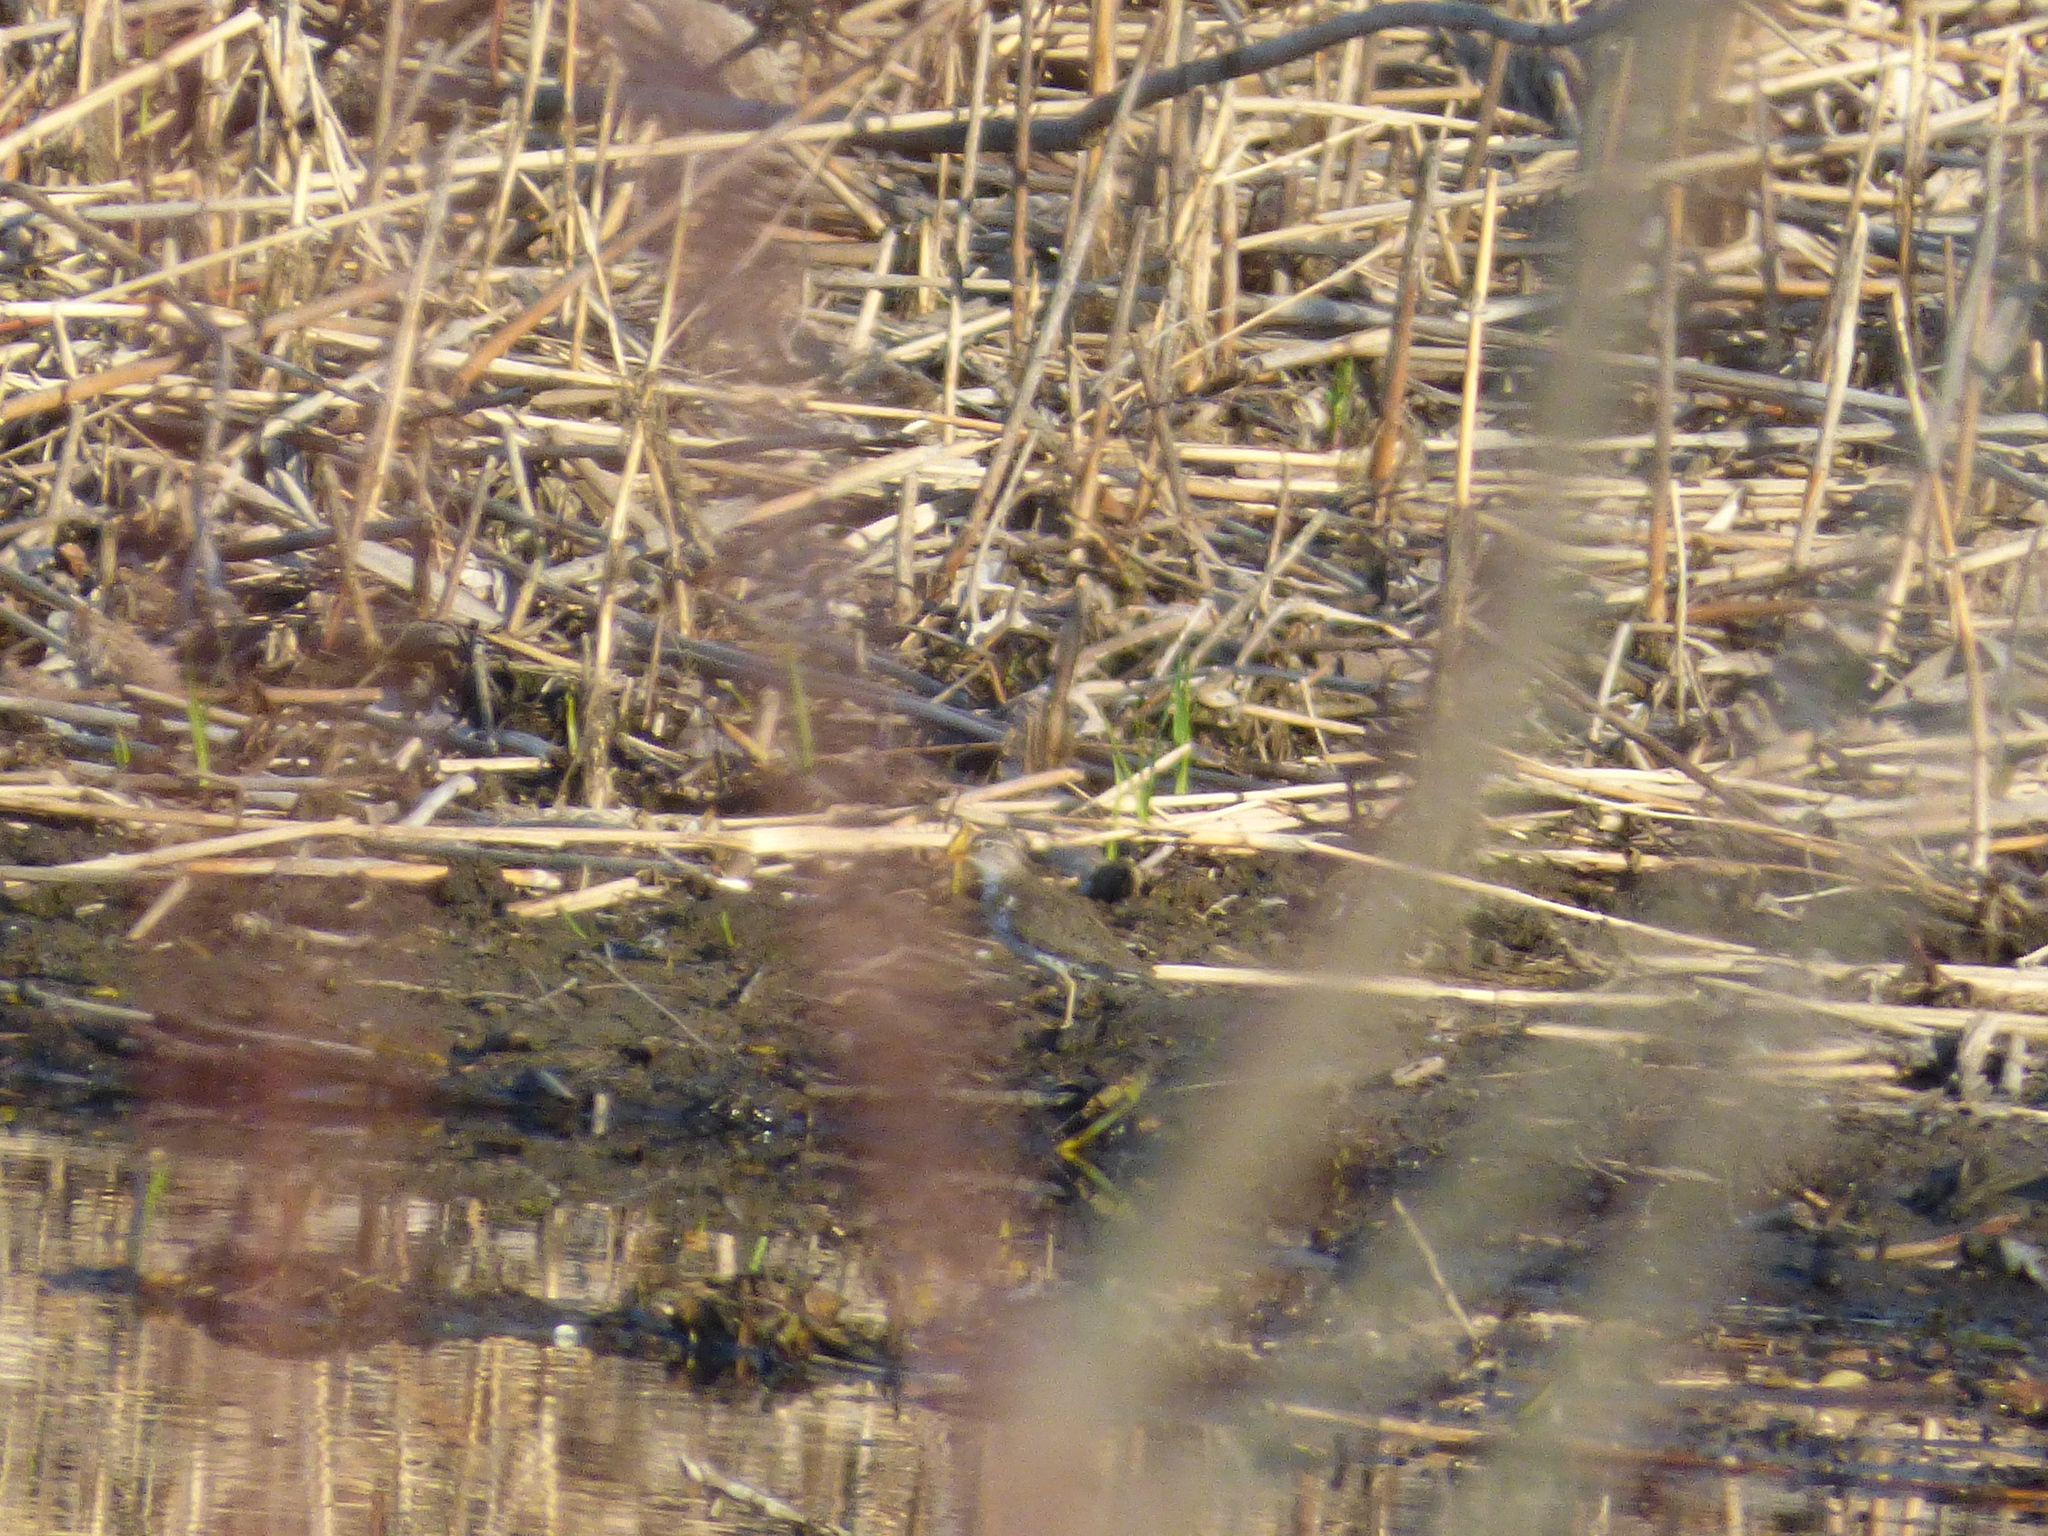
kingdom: Animalia
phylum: Chordata
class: Aves
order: Charadriiformes
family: Scolopacidae
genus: Actitis
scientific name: Actitis macularius
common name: Spotted sandpiper
